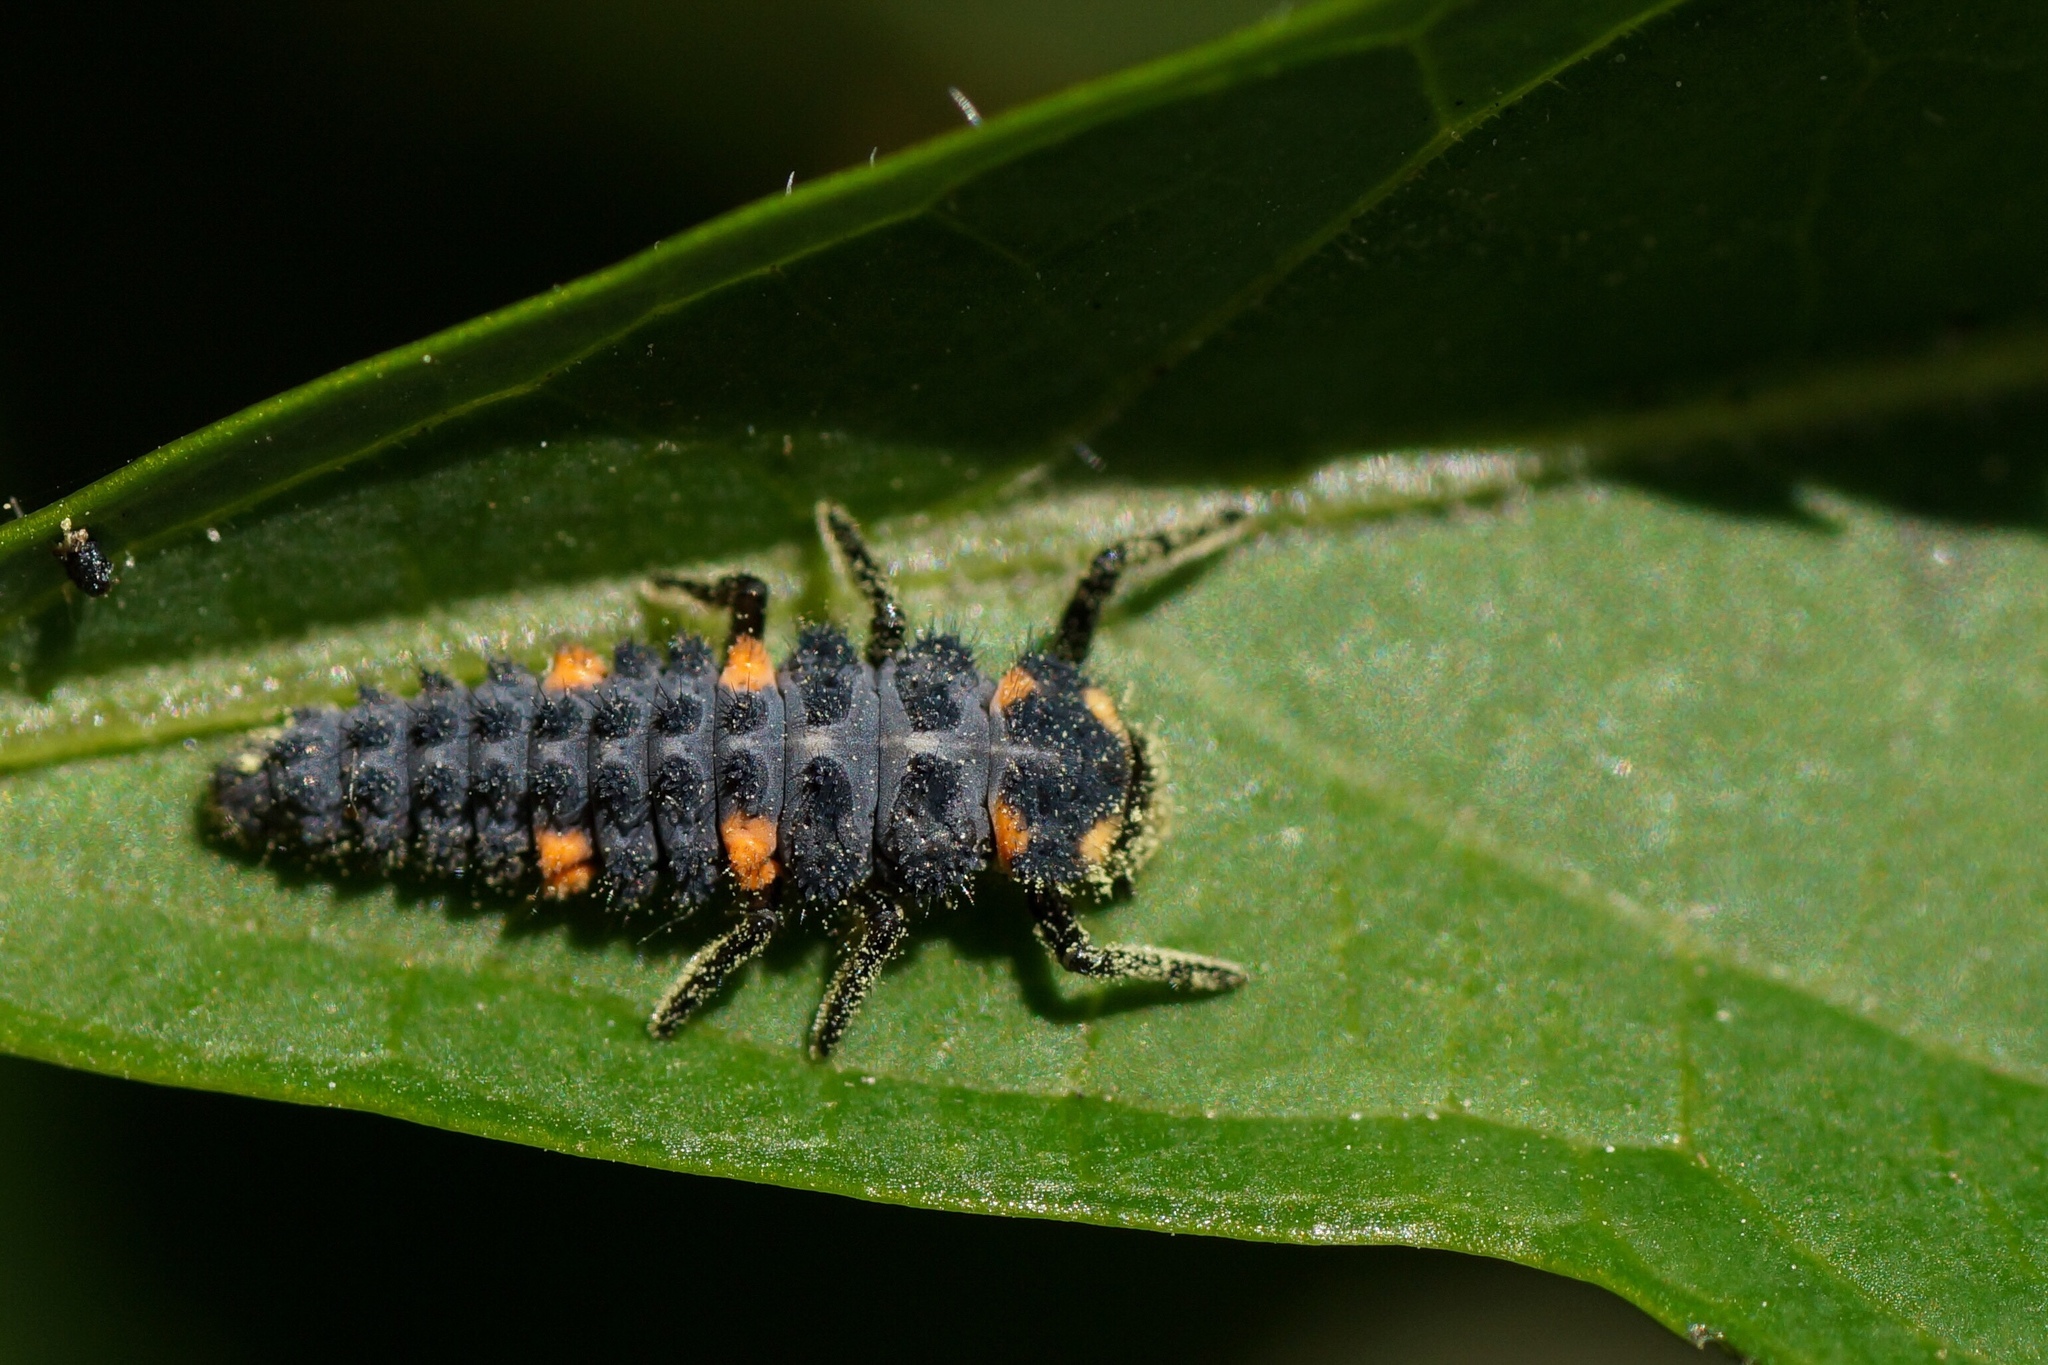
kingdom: Animalia
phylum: Arthropoda
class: Insecta
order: Coleoptera
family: Coccinellidae
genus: Coccinella
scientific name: Coccinella septempunctata
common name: Sevenspotted lady beetle
